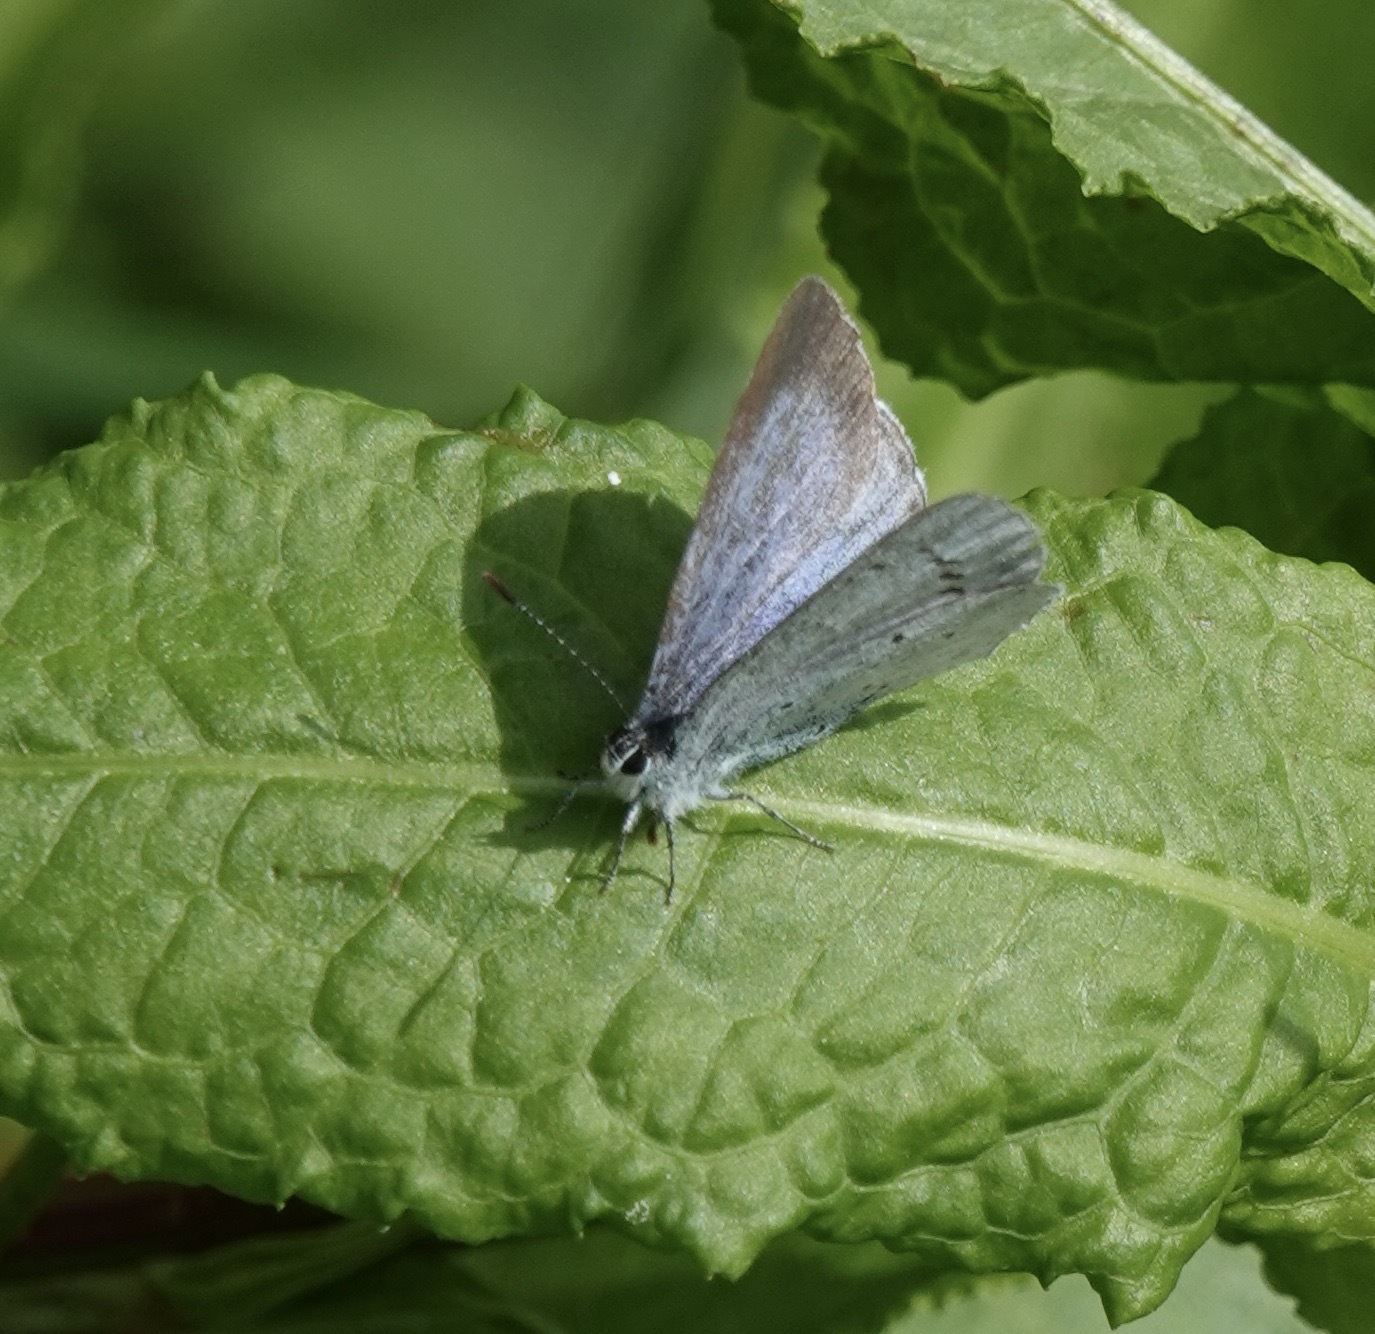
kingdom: Animalia
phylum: Arthropoda
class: Insecta
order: Lepidoptera
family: Lycaenidae
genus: Celastrina
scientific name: Celastrina argiolus
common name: Holly blue
